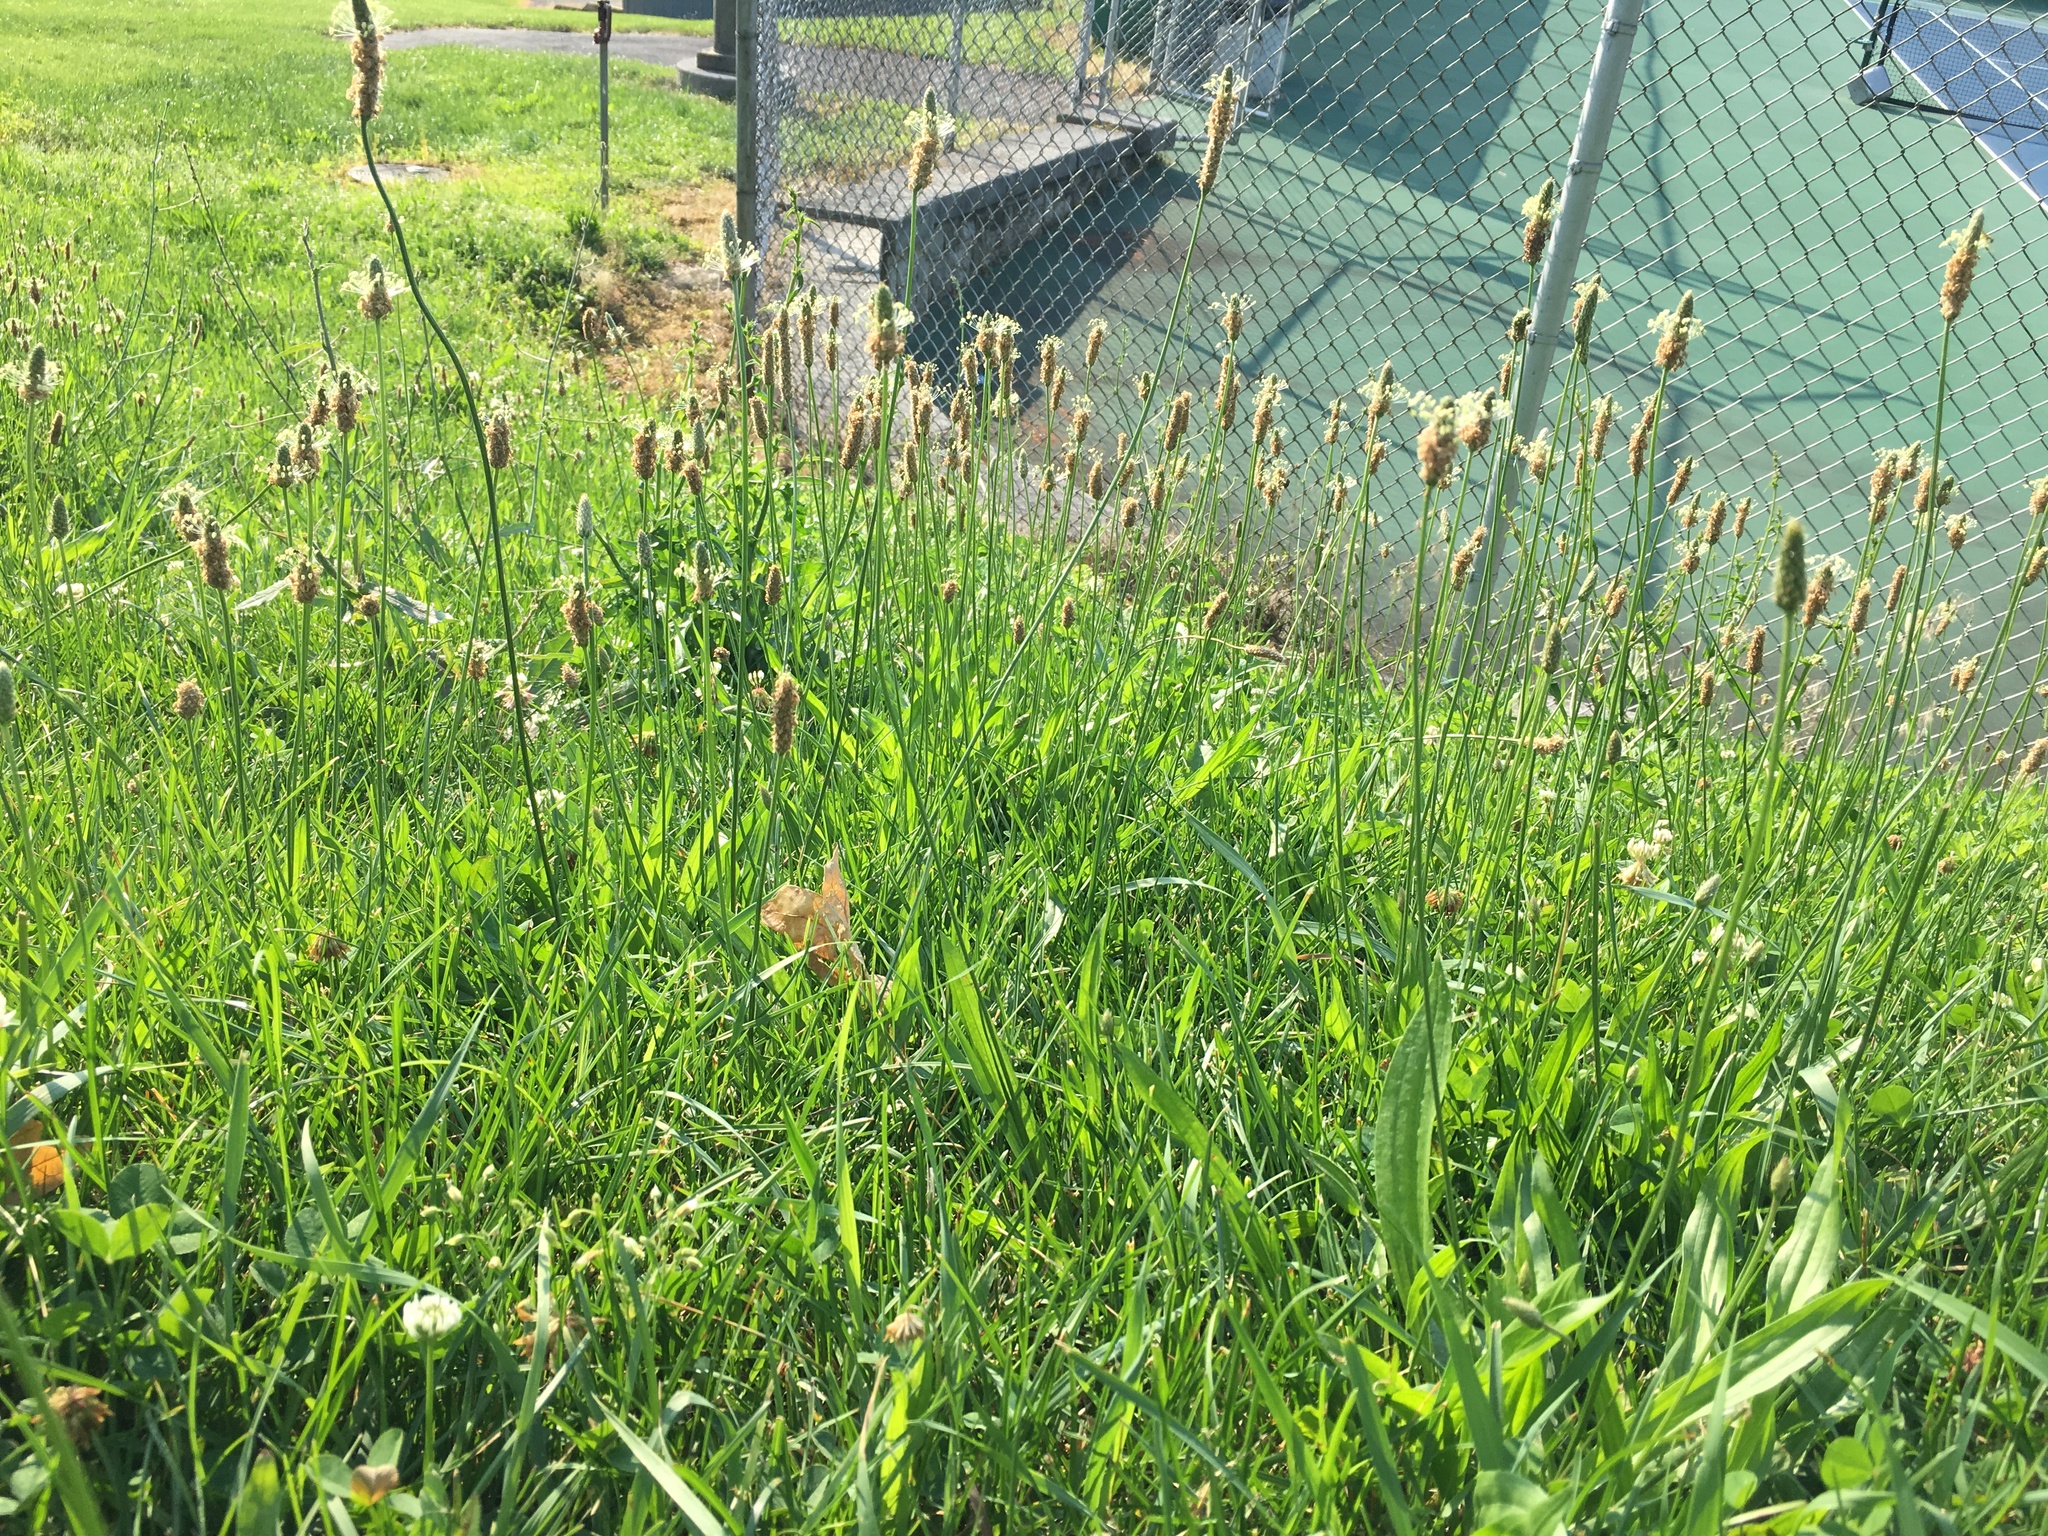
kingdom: Plantae
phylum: Tracheophyta
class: Magnoliopsida
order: Lamiales
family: Plantaginaceae
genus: Plantago
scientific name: Plantago lanceolata
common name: Ribwort plantain
